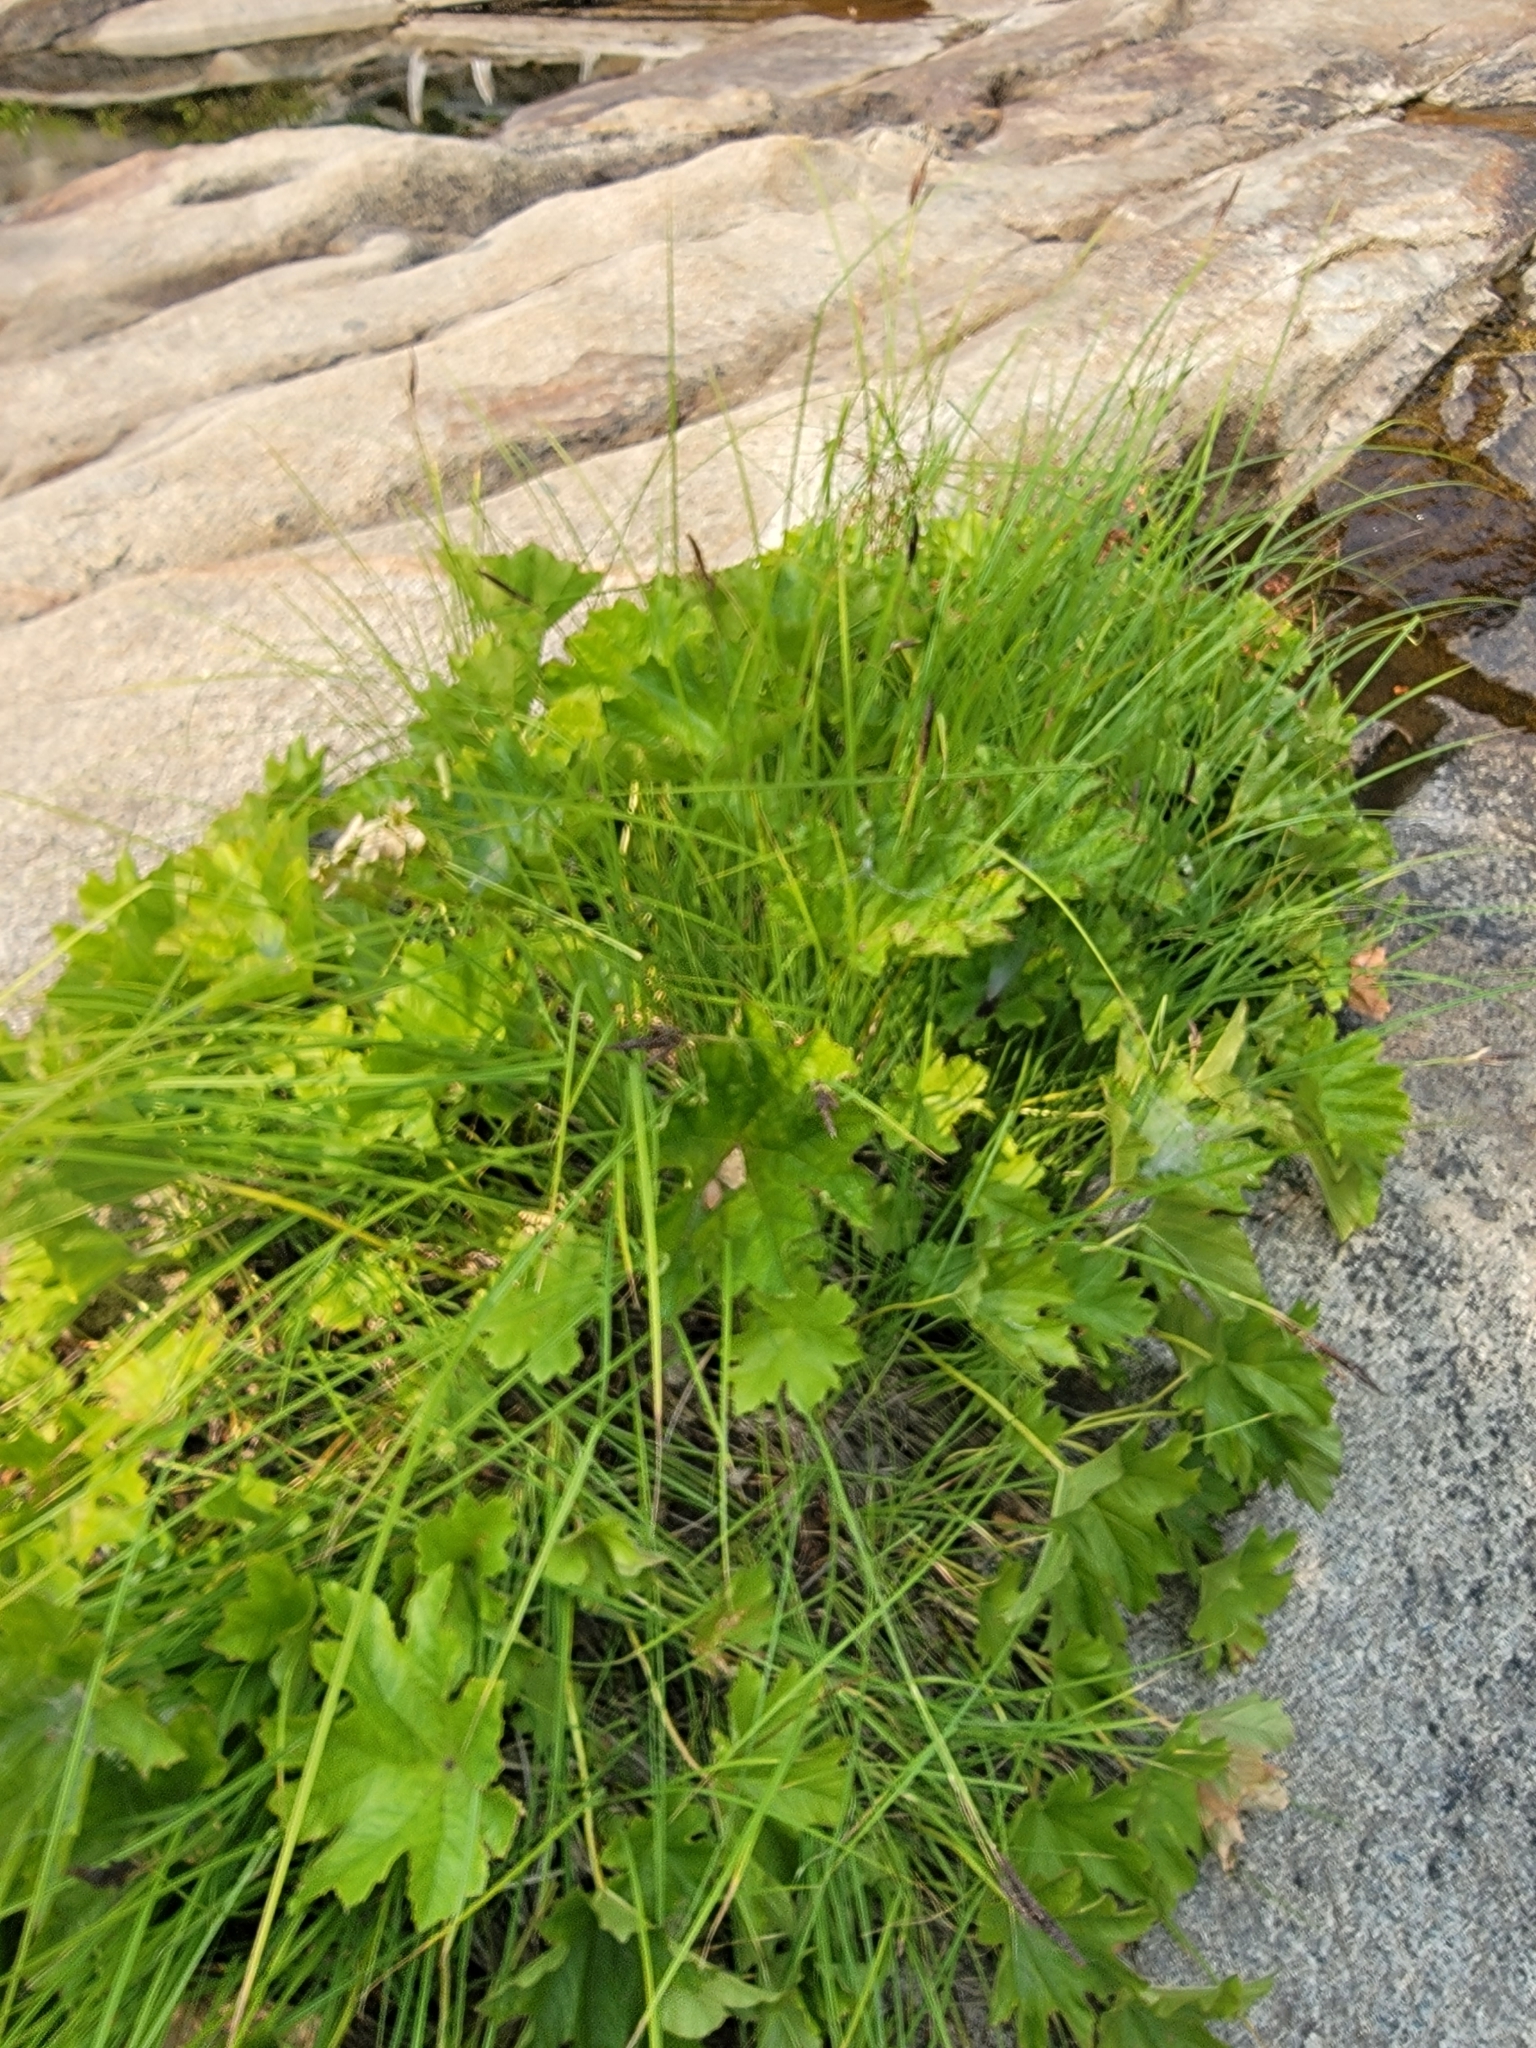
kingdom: Plantae
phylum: Tracheophyta
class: Magnoliopsida
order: Saxifragales
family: Saxifragaceae
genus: Darmera
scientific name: Darmera peltata
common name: Indian-rhubarb
